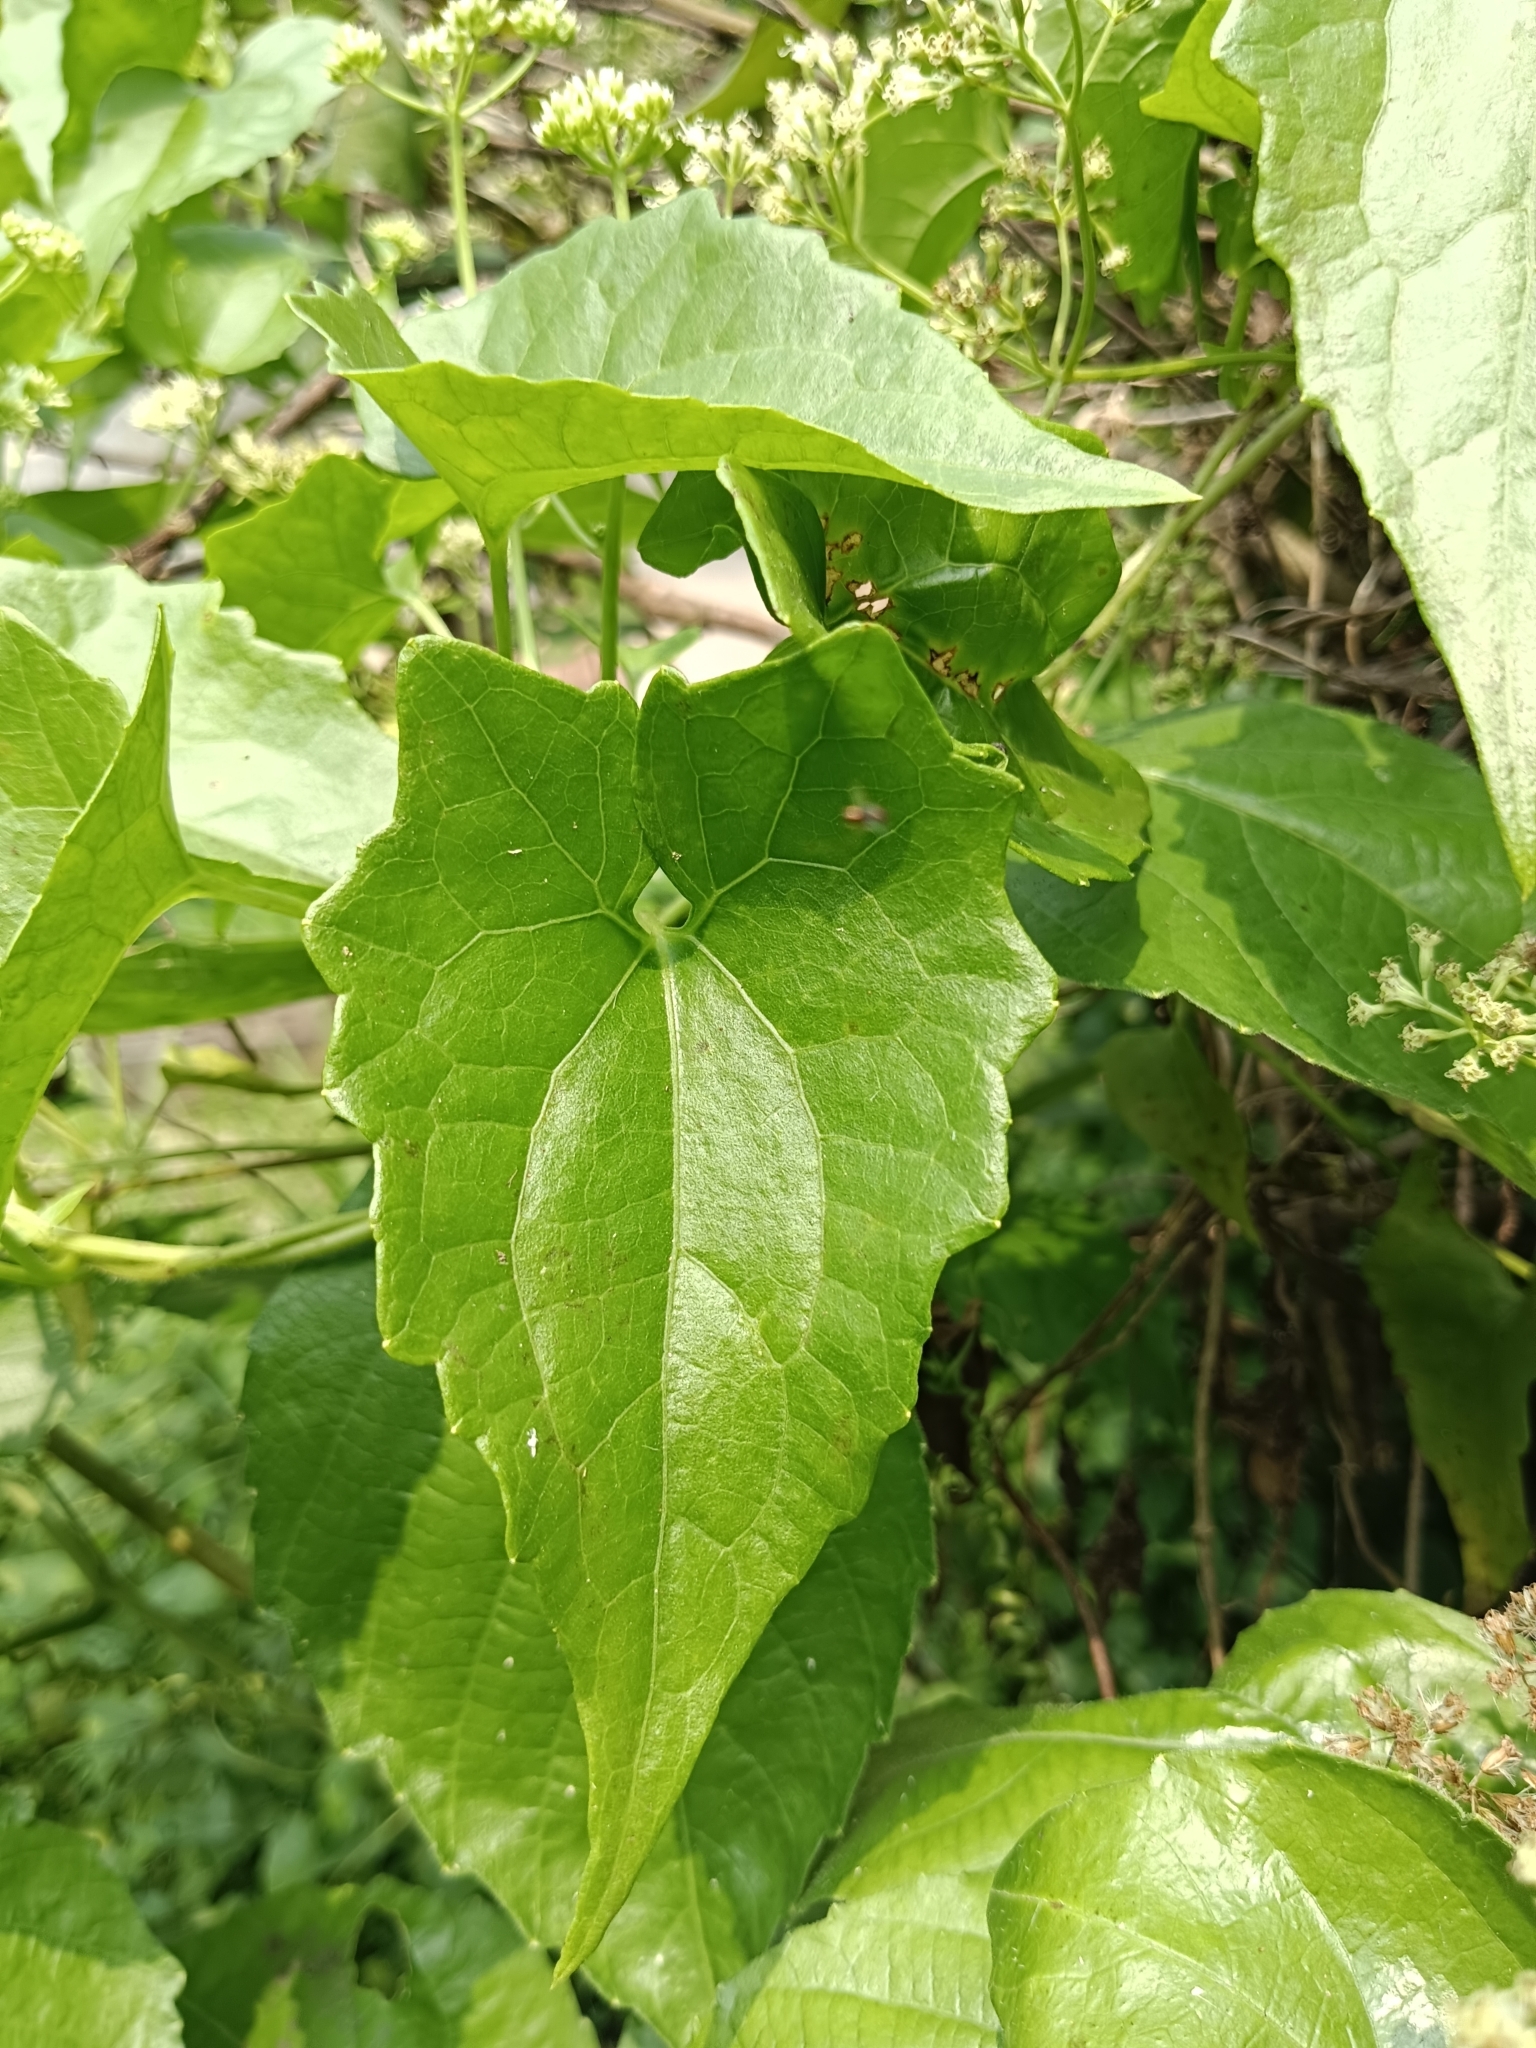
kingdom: Plantae
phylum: Tracheophyta
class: Magnoliopsida
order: Asterales
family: Asteraceae
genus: Mikania
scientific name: Mikania micrantha
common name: Mile-a-minute
